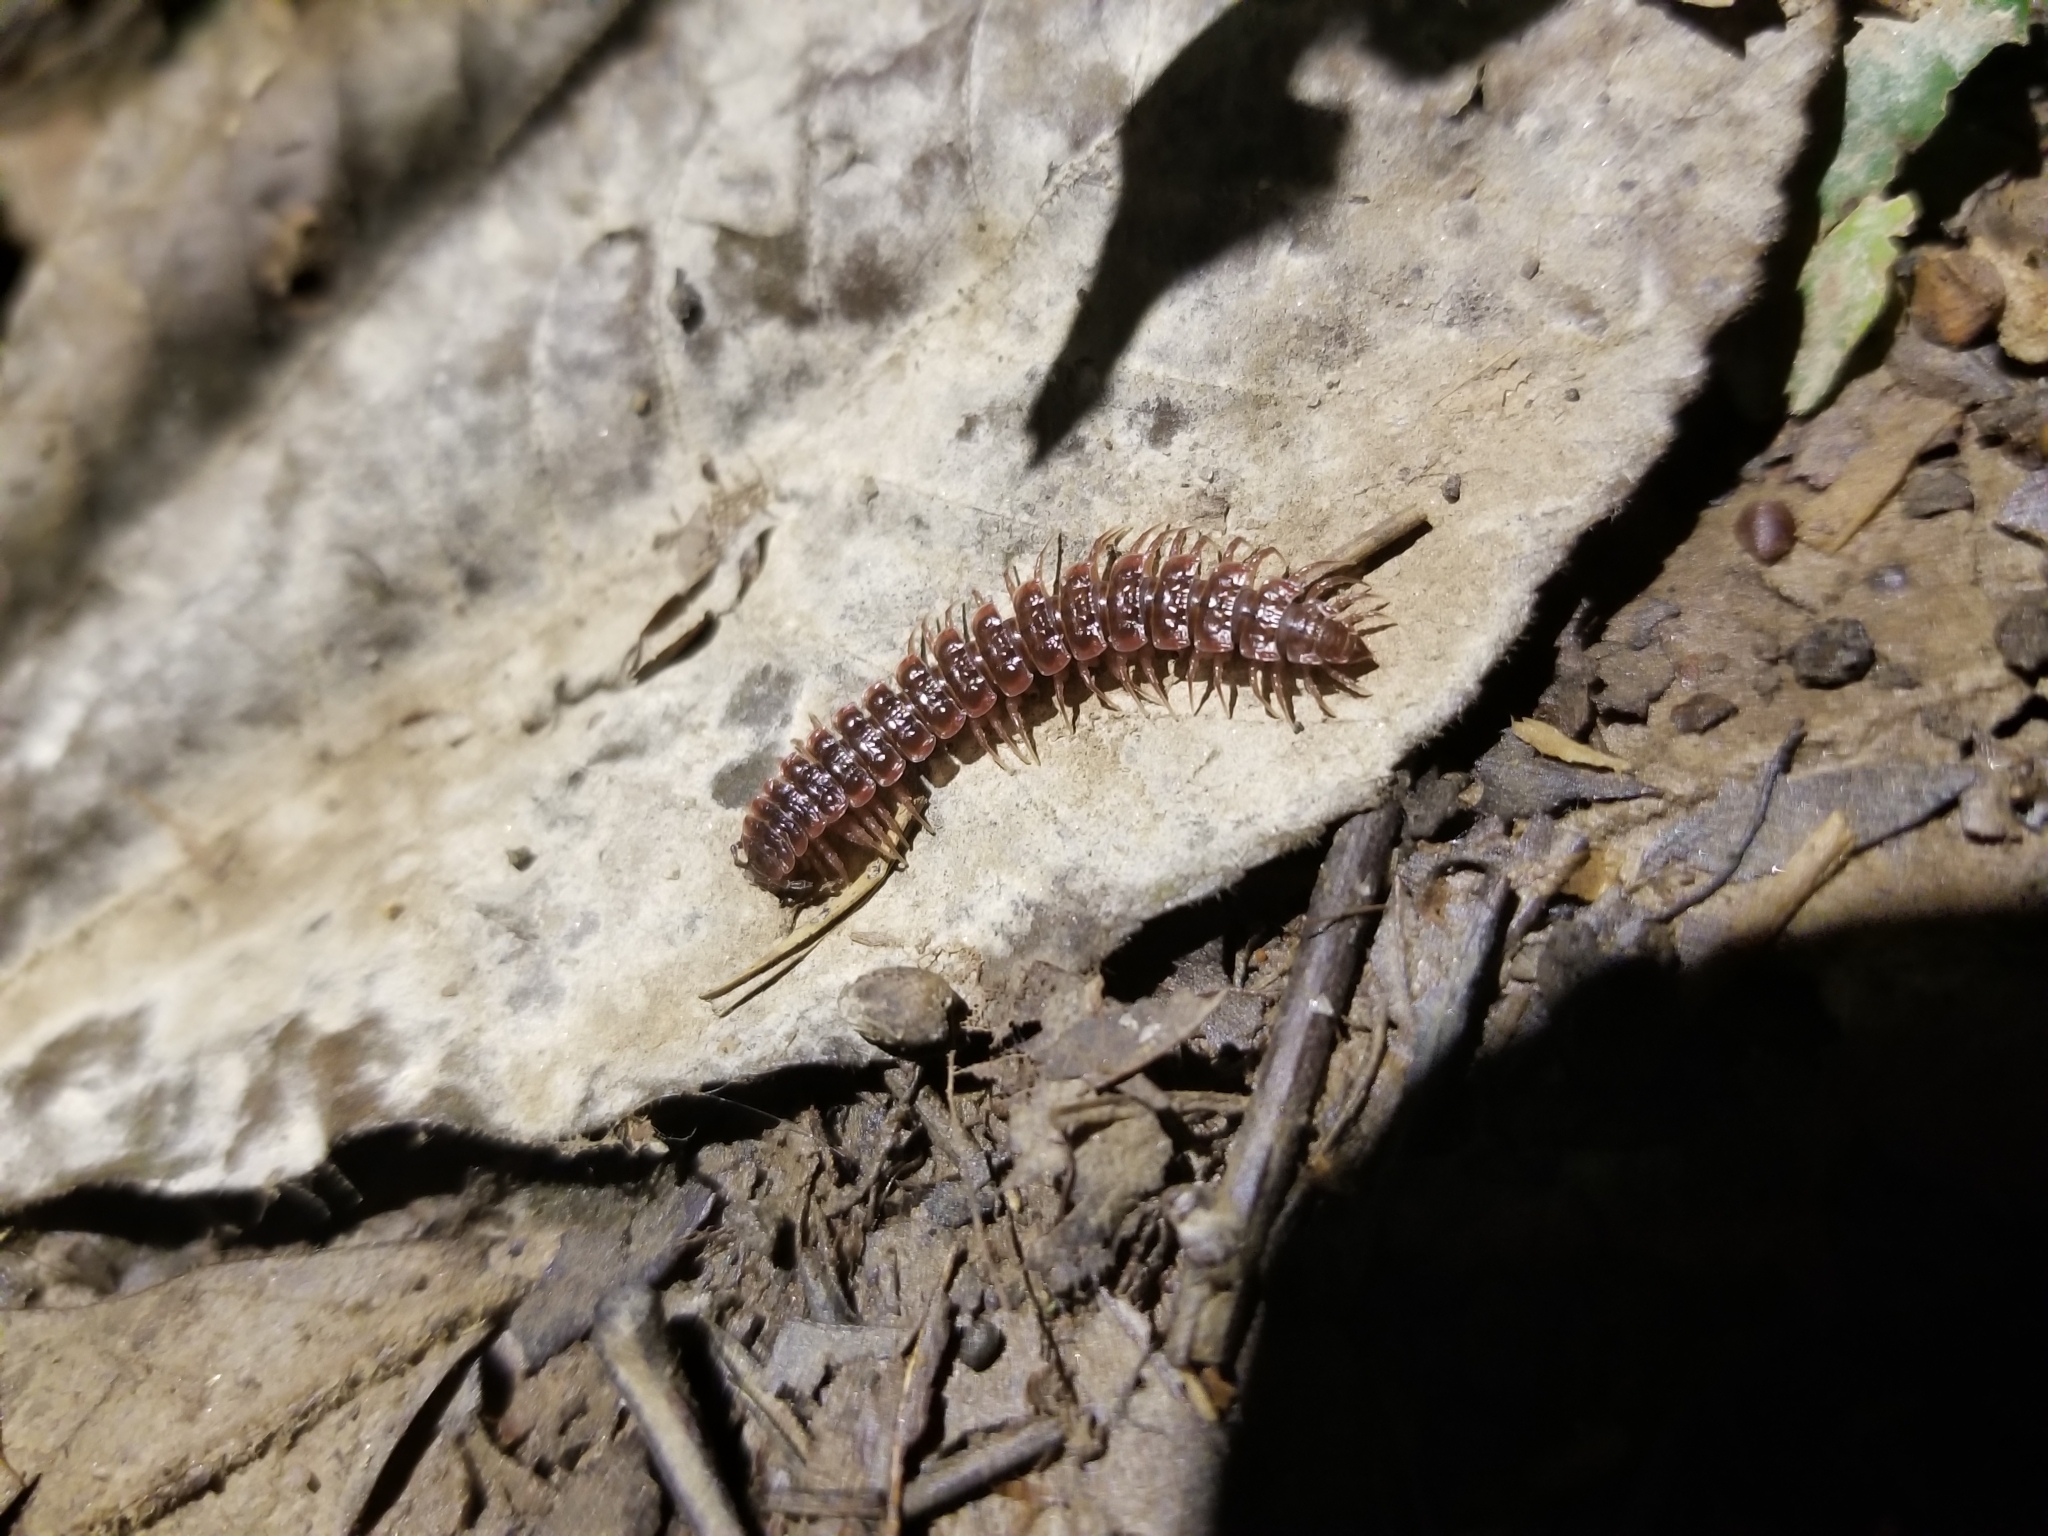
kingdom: Animalia
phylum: Arthropoda
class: Diplopoda
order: Polydesmida
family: Polydesmidae
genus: Pseudopolydesmus
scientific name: Pseudopolydesmus serratus
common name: Common pink flat-back millipede
